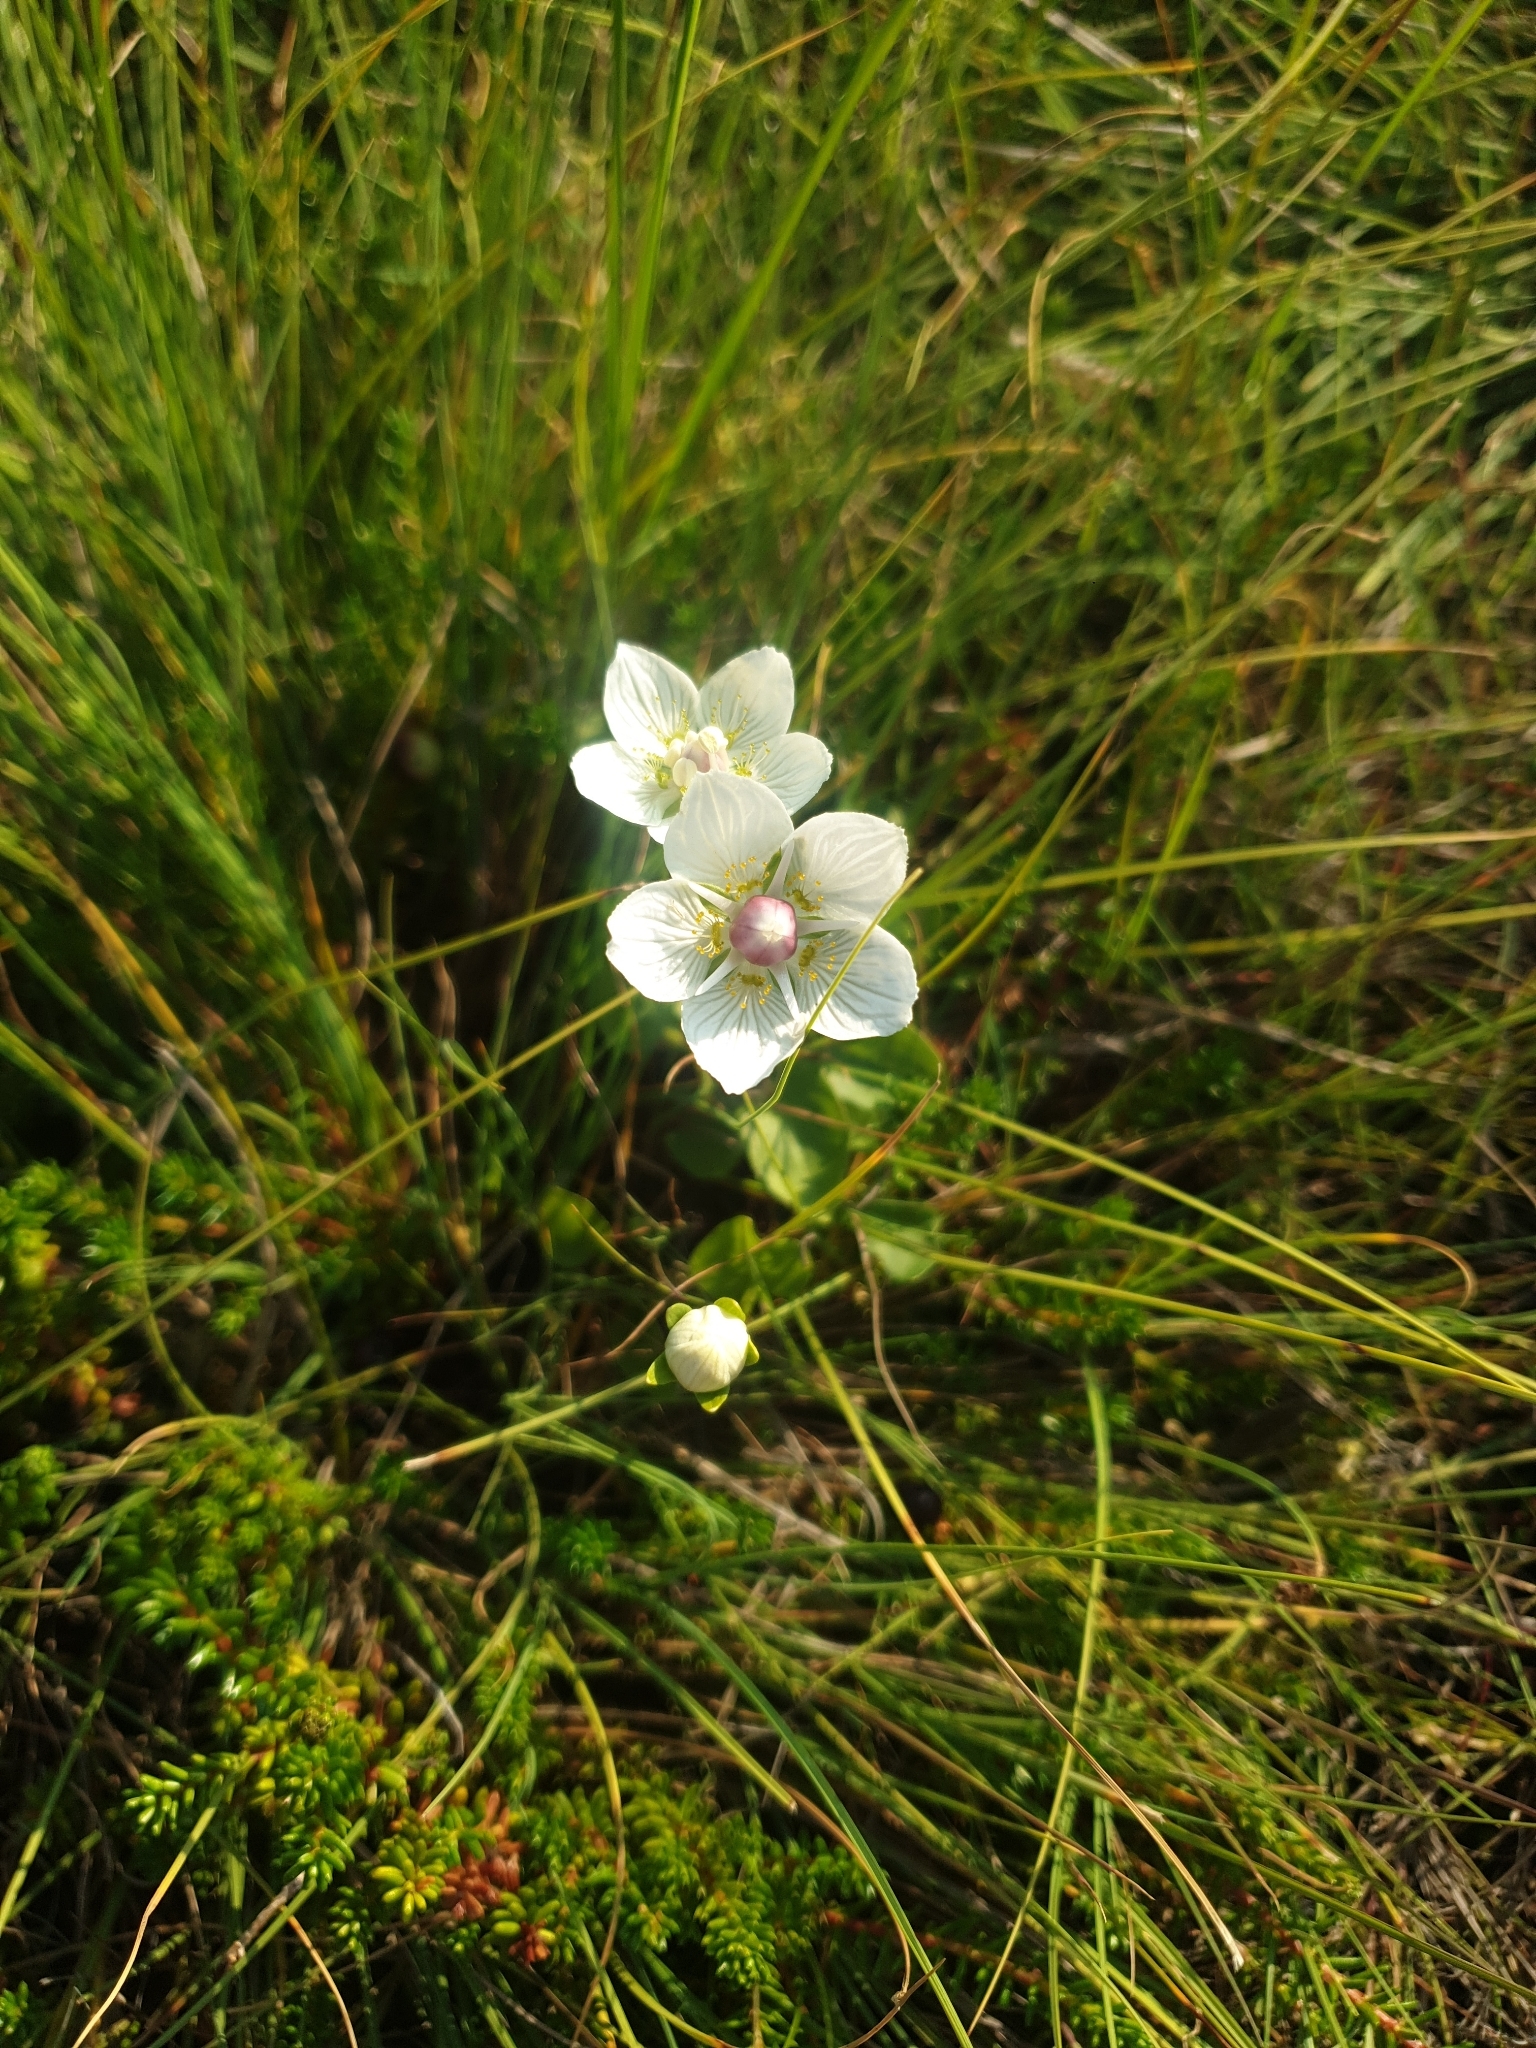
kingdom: Plantae
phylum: Tracheophyta
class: Magnoliopsida
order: Celastrales
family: Parnassiaceae
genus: Parnassia
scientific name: Parnassia palustris
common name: Grass-of-parnassus
